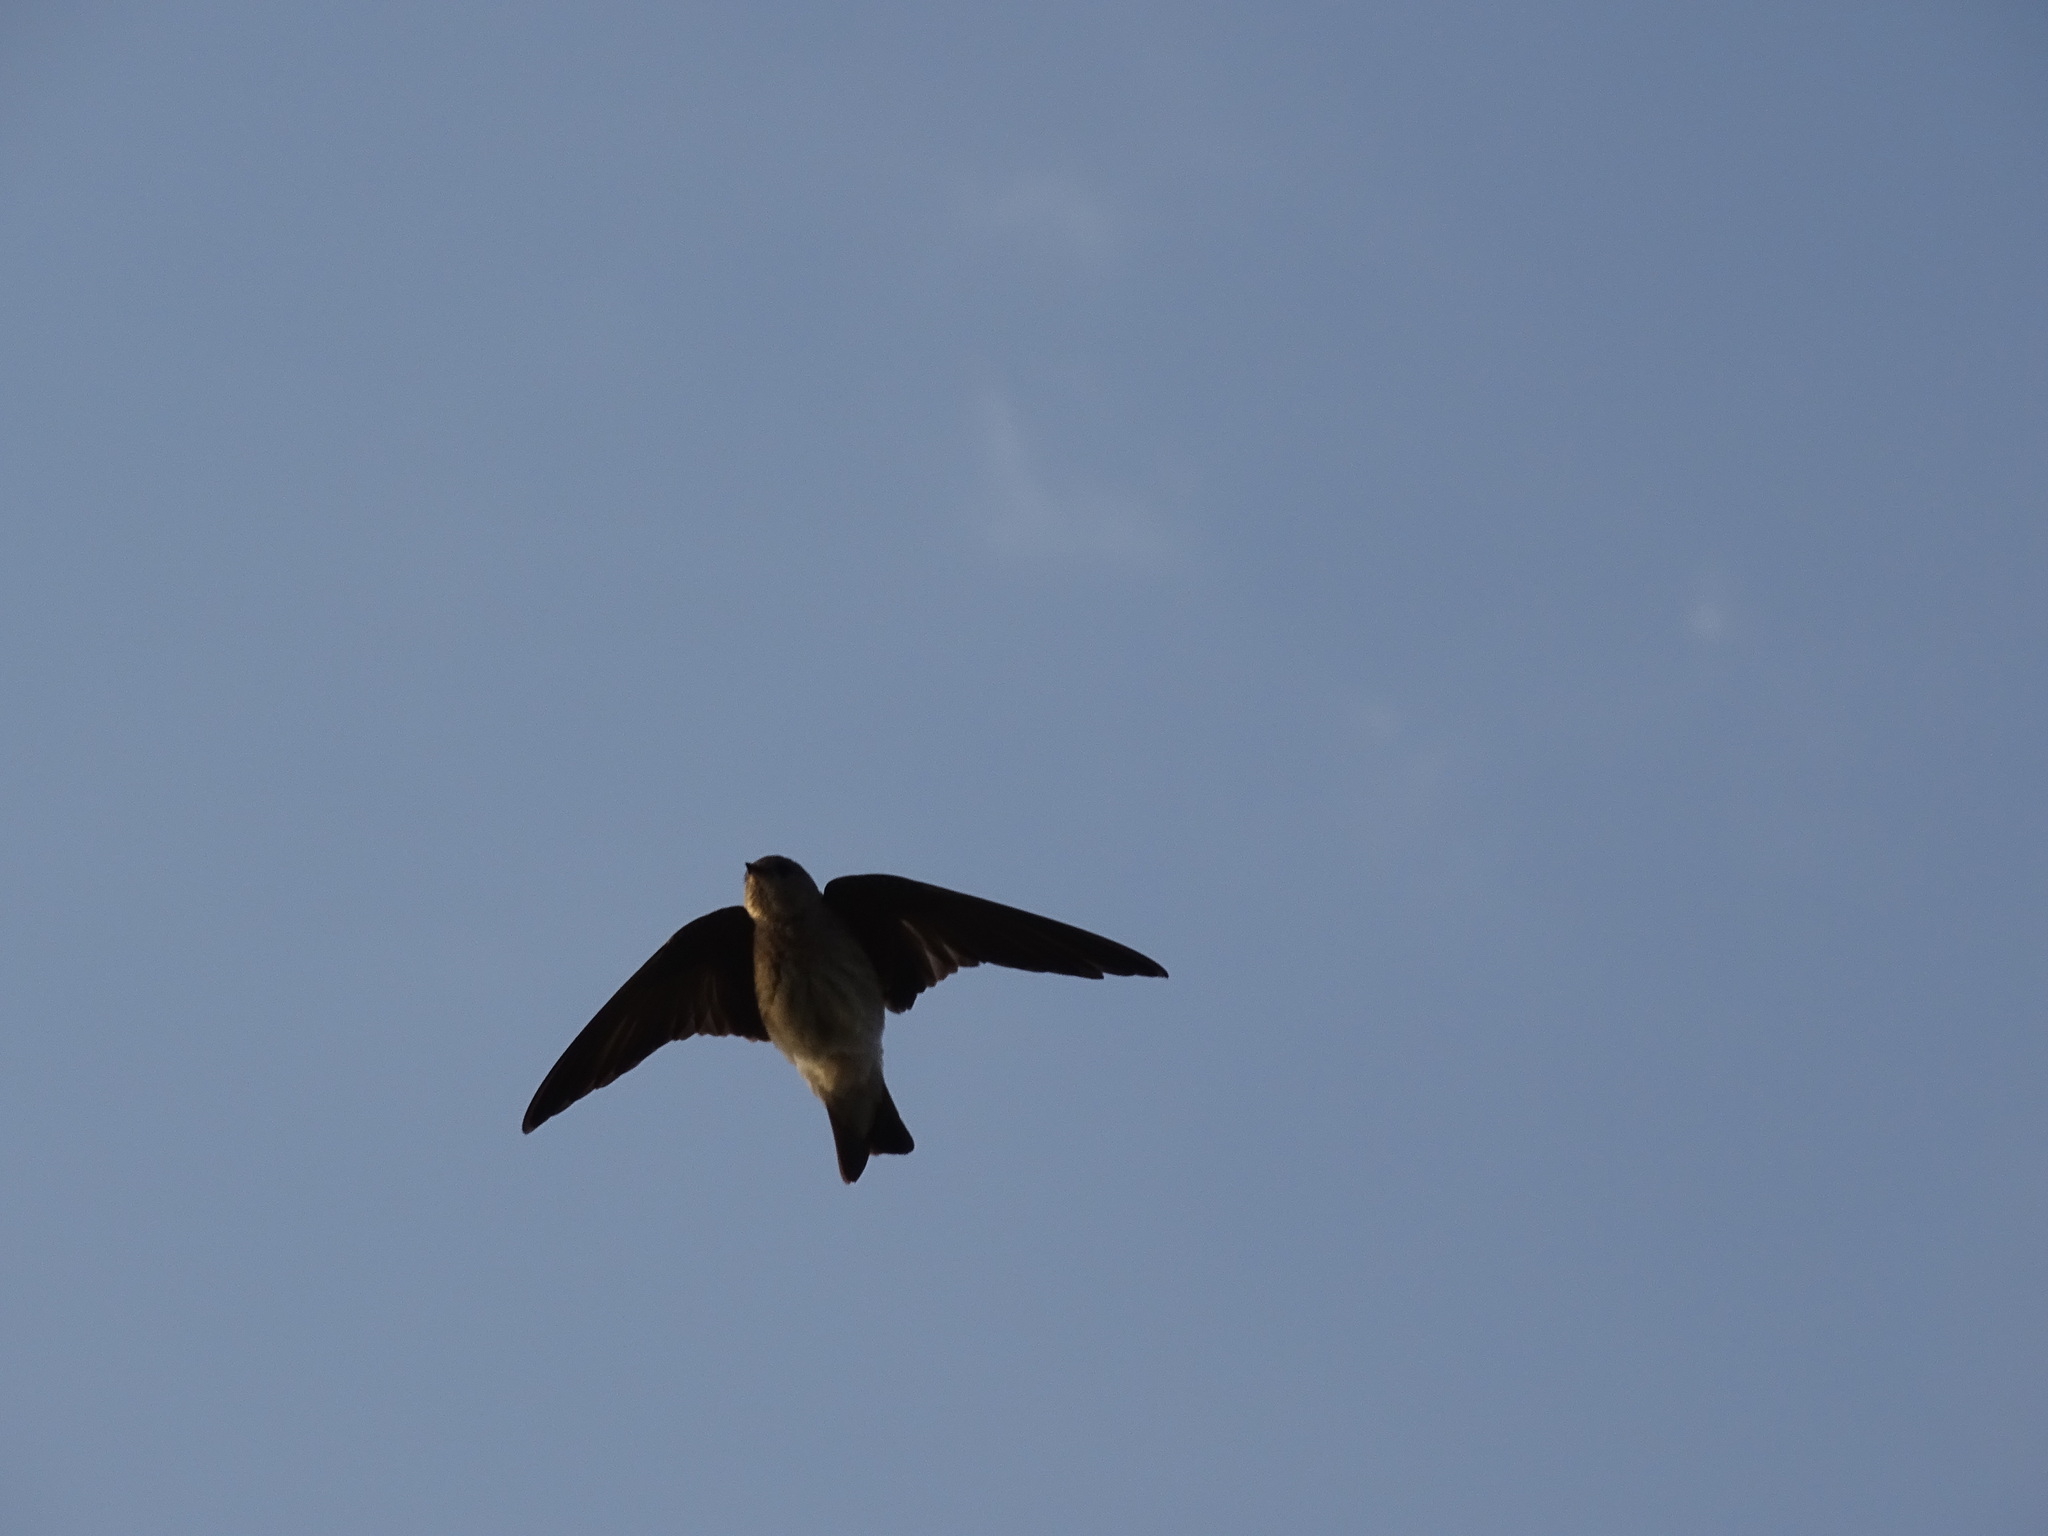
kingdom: Animalia
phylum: Chordata
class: Aves
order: Passeriformes
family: Hirundinidae
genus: Stelgidopteryx
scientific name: Stelgidopteryx serripennis
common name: Northern rough-winged swallow
